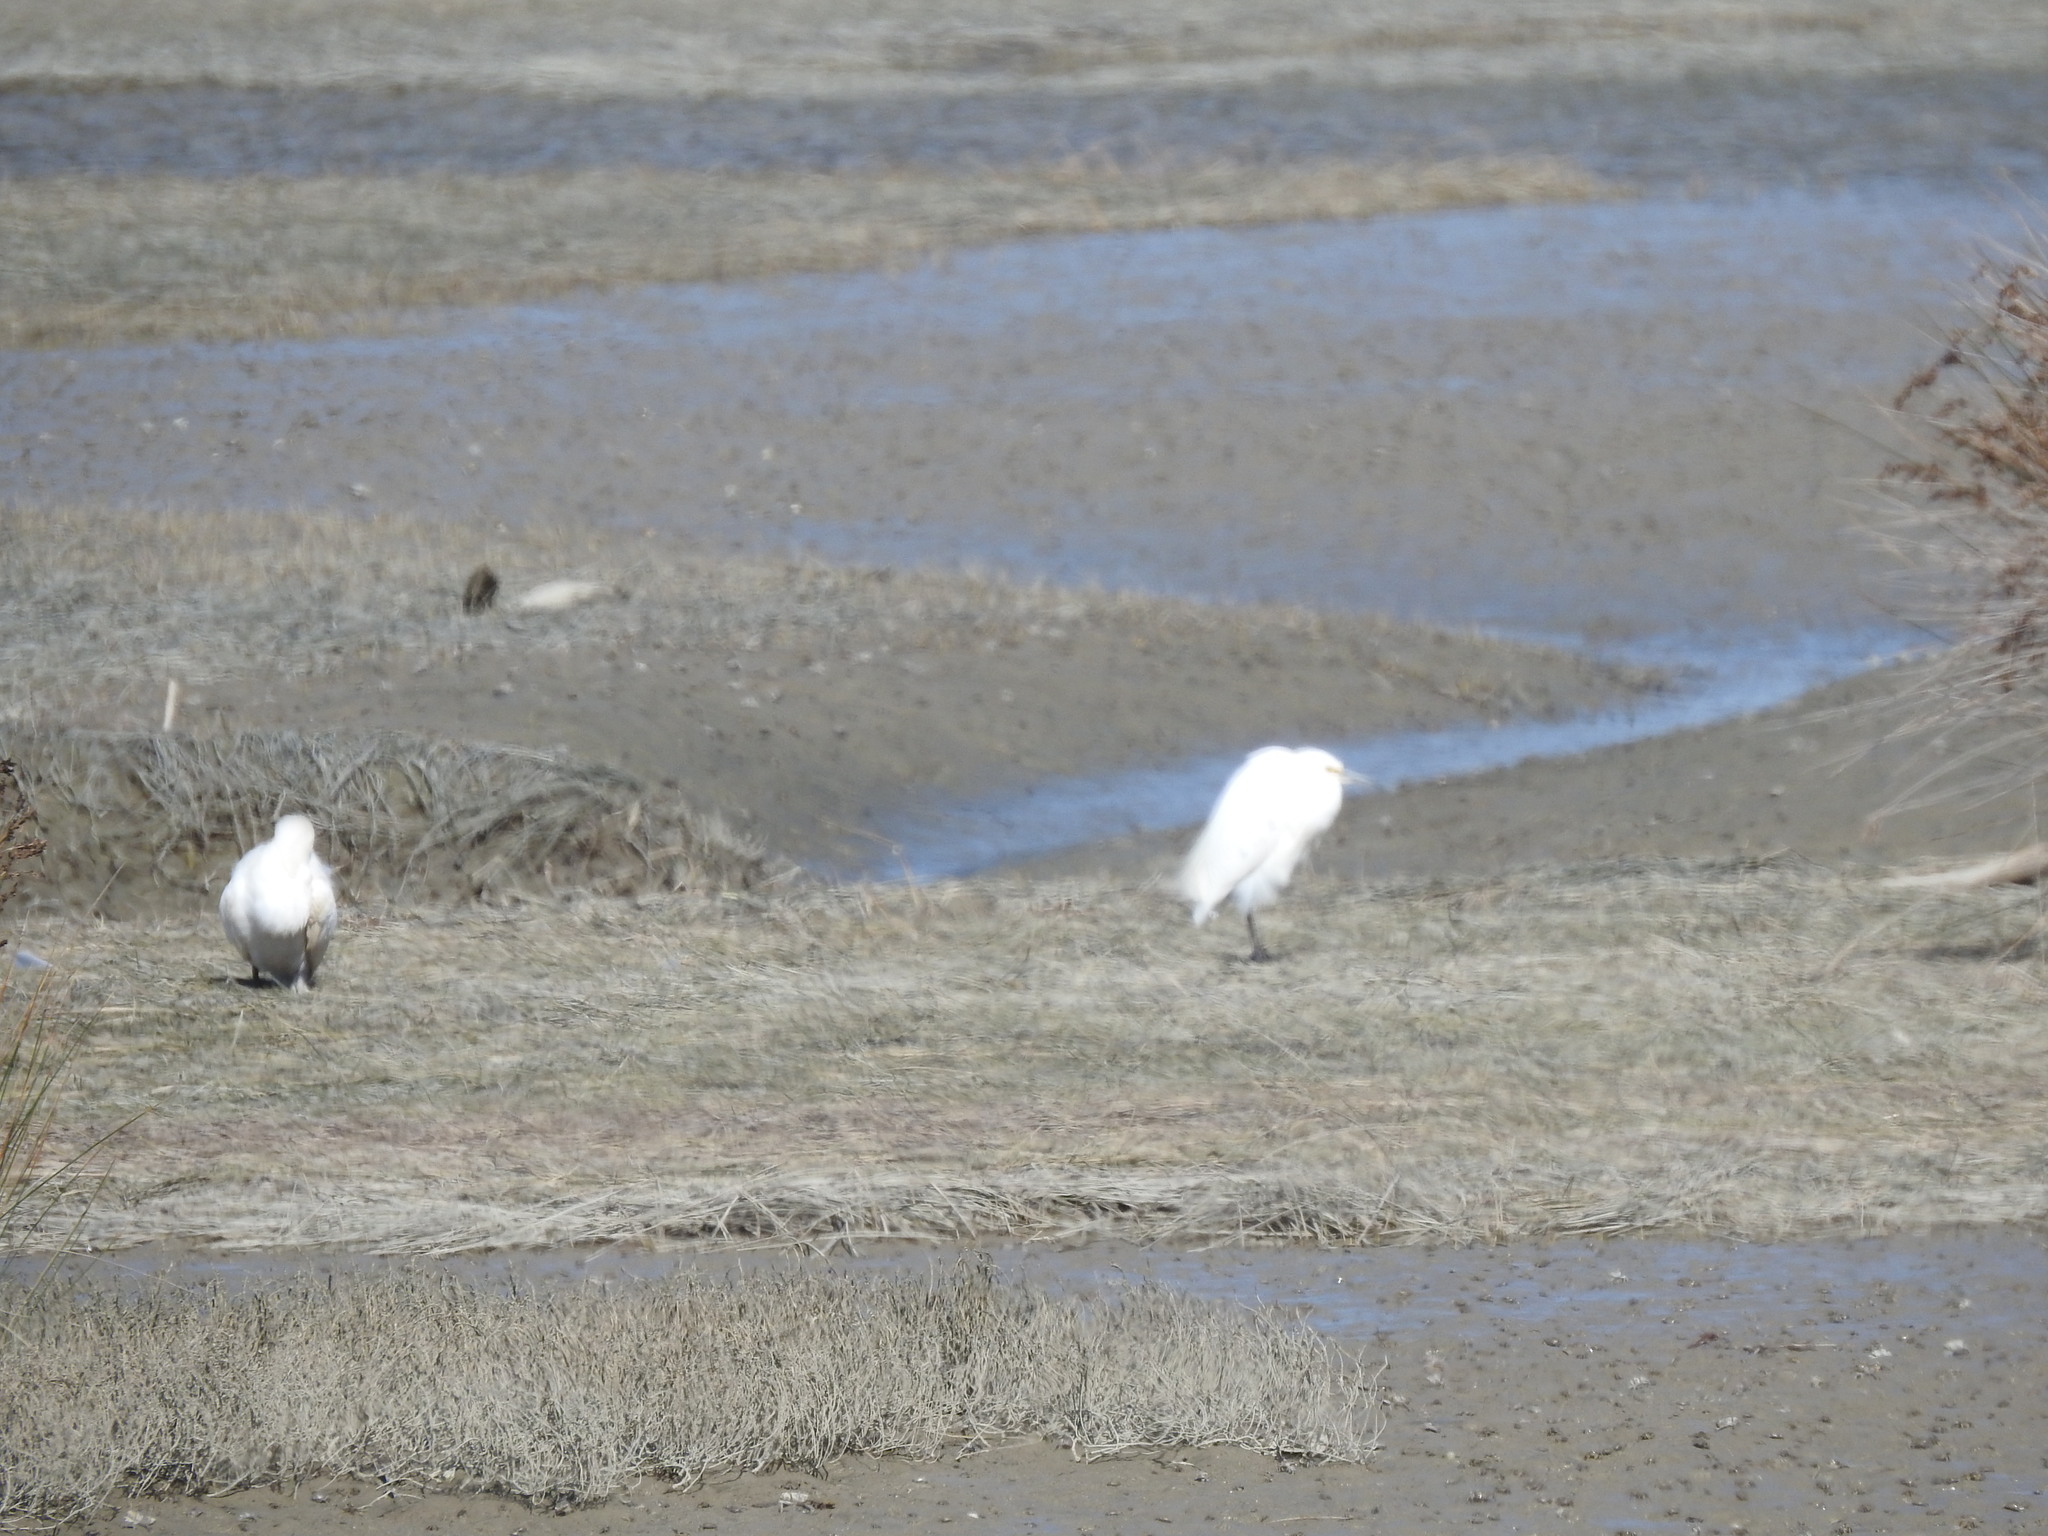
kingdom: Animalia
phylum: Chordata
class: Aves
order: Pelecaniformes
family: Ardeidae
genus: Egretta
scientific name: Egretta garzetta
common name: Little egret
